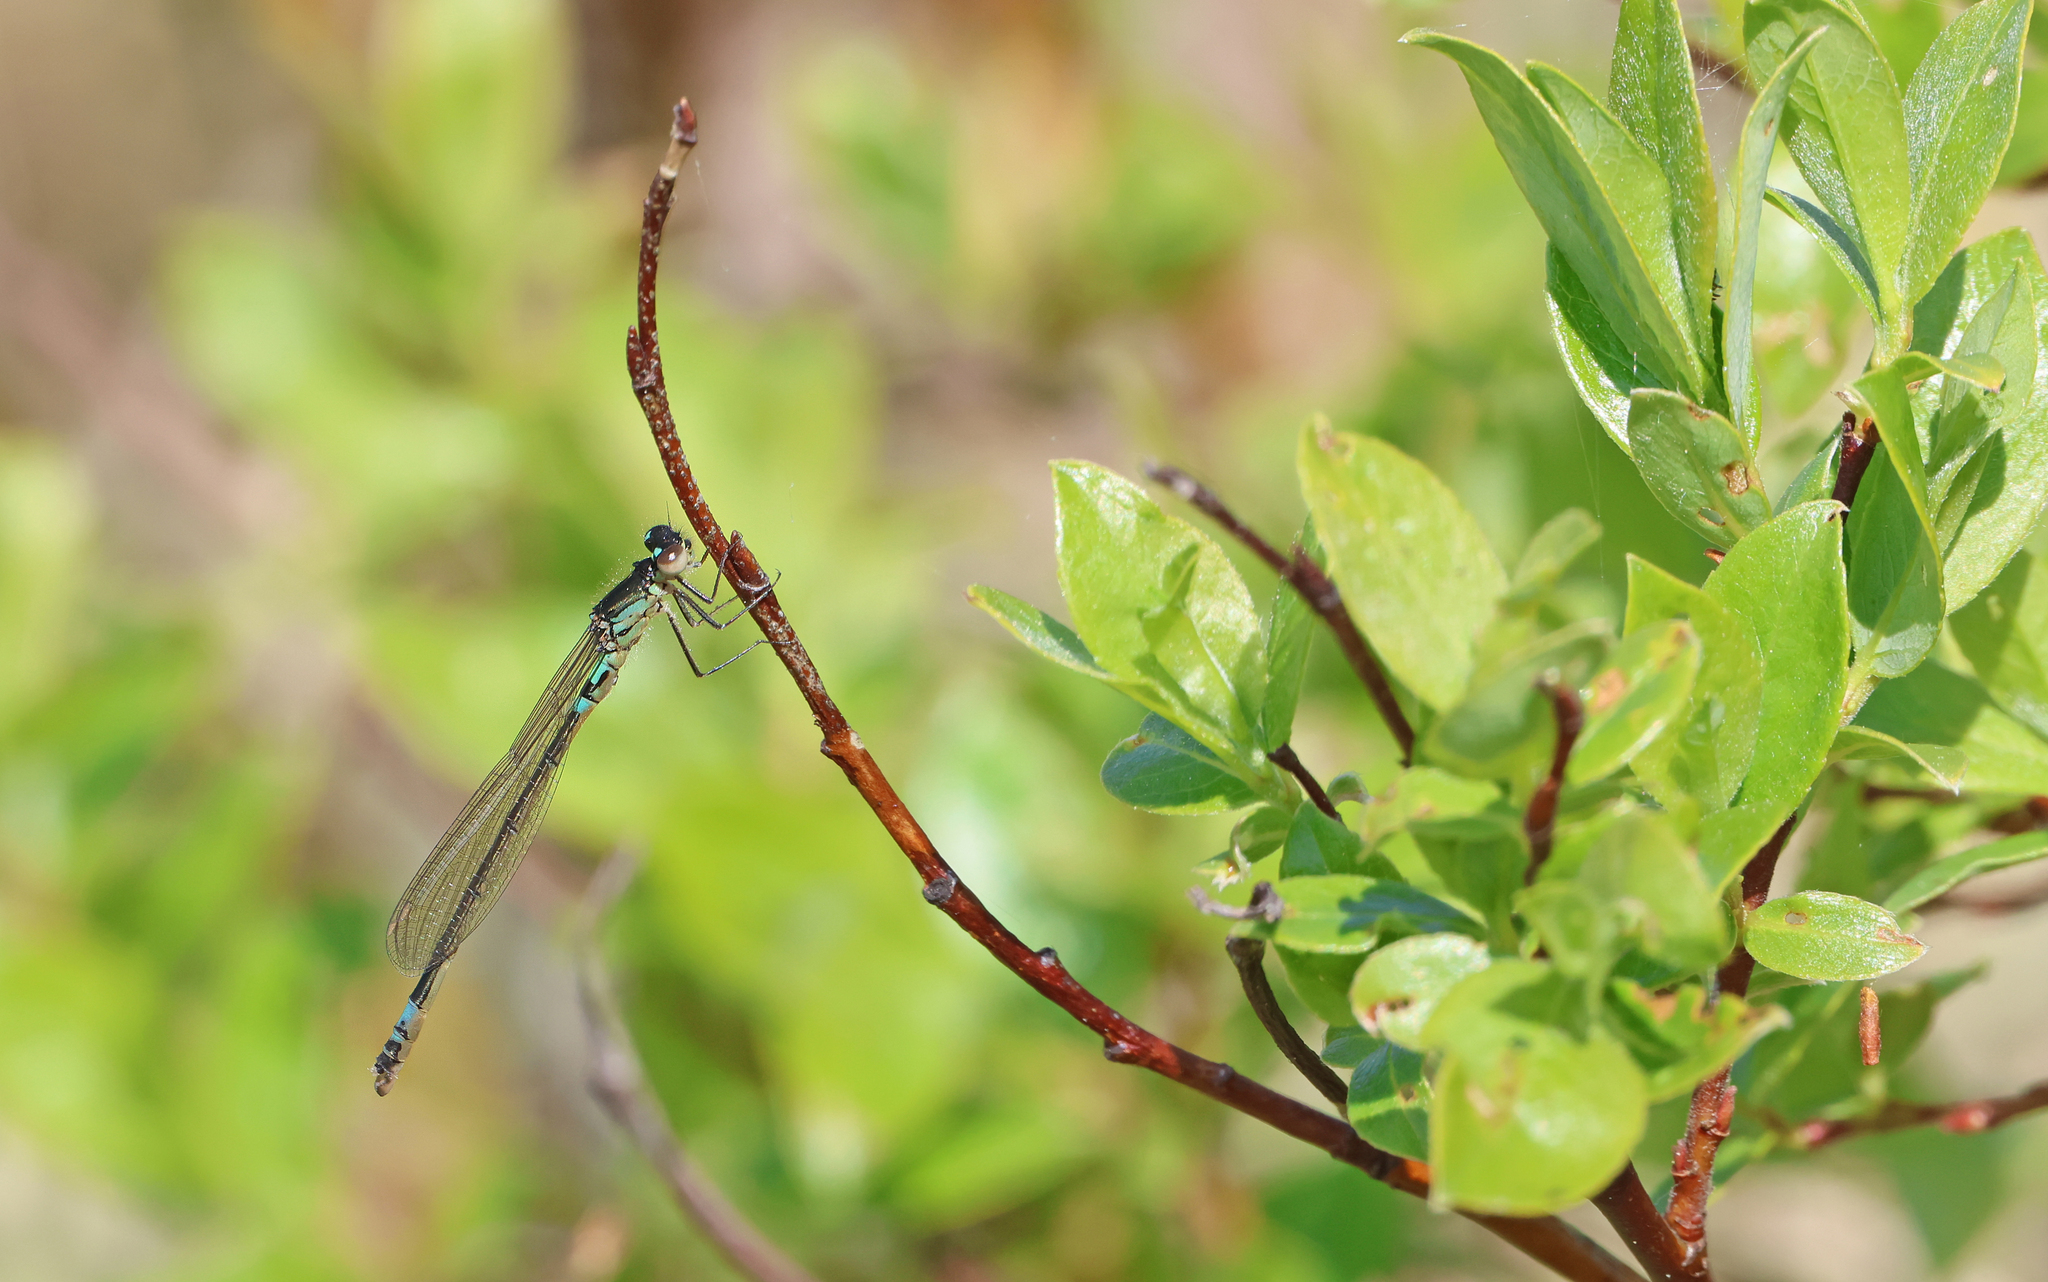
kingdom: Animalia
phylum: Arthropoda
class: Insecta
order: Odonata
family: Coenagrionidae
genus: Coenagrion
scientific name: Coenagrion armatum
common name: Dark bluet
